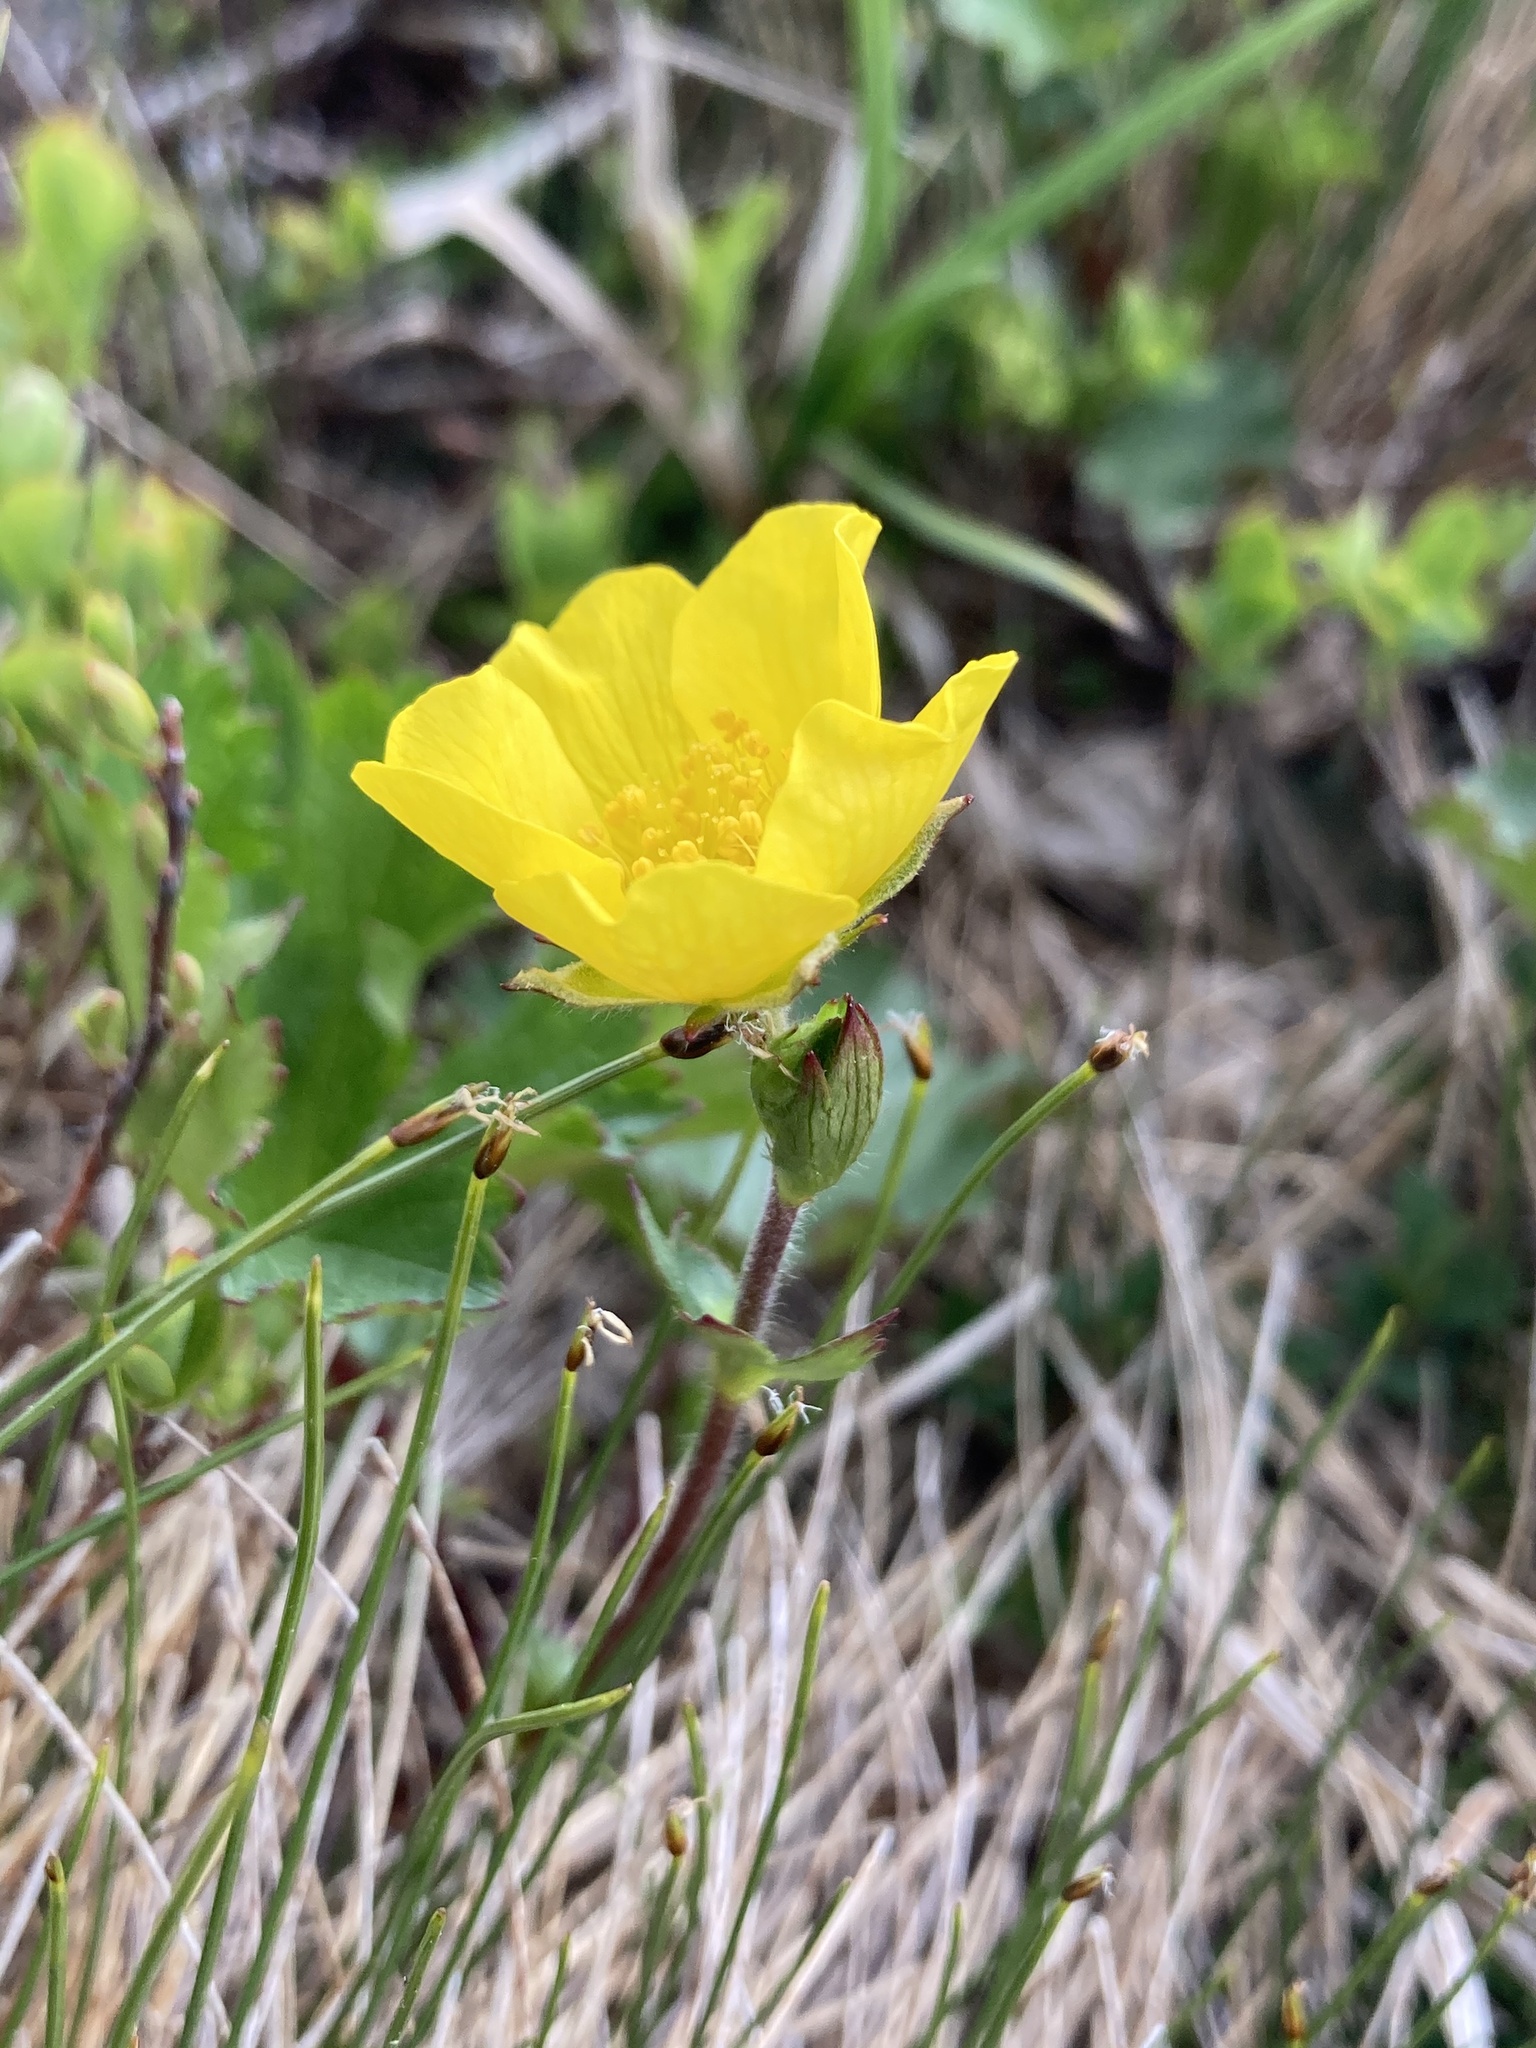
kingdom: Plantae
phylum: Tracheophyta
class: Magnoliopsida
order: Rosales
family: Rosaceae
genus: Geum
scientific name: Geum peckii
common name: Eastern mountain avens
